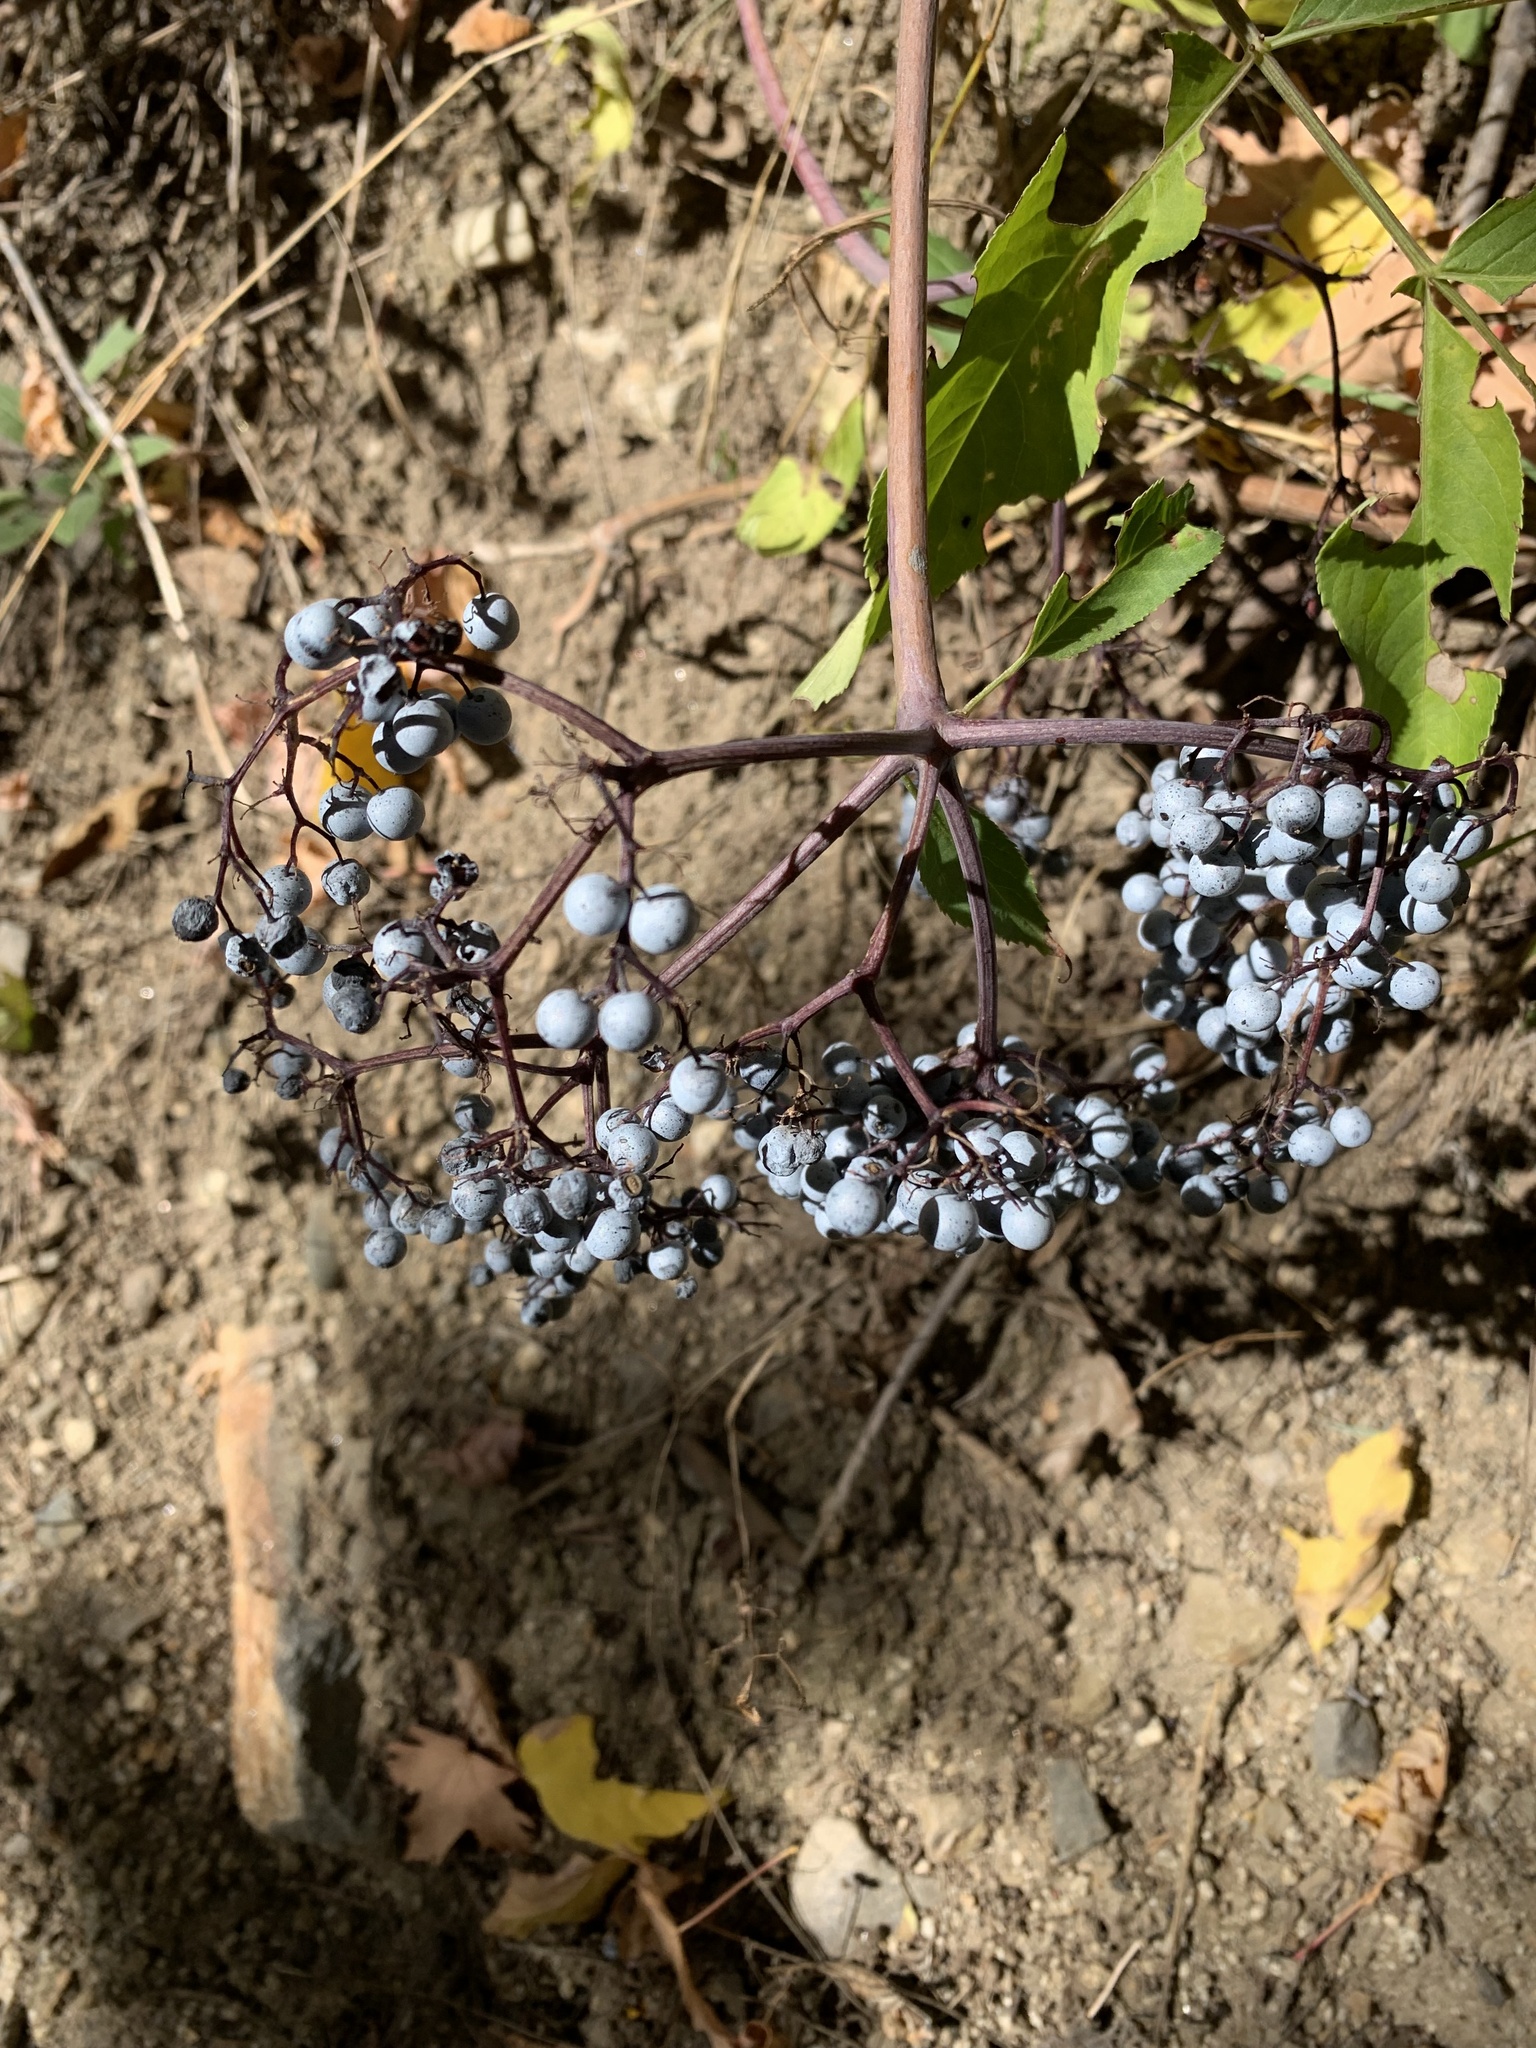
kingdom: Plantae
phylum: Tracheophyta
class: Magnoliopsida
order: Dipsacales
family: Viburnaceae
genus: Sambucus
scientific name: Sambucus cerulea
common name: Blue elder
